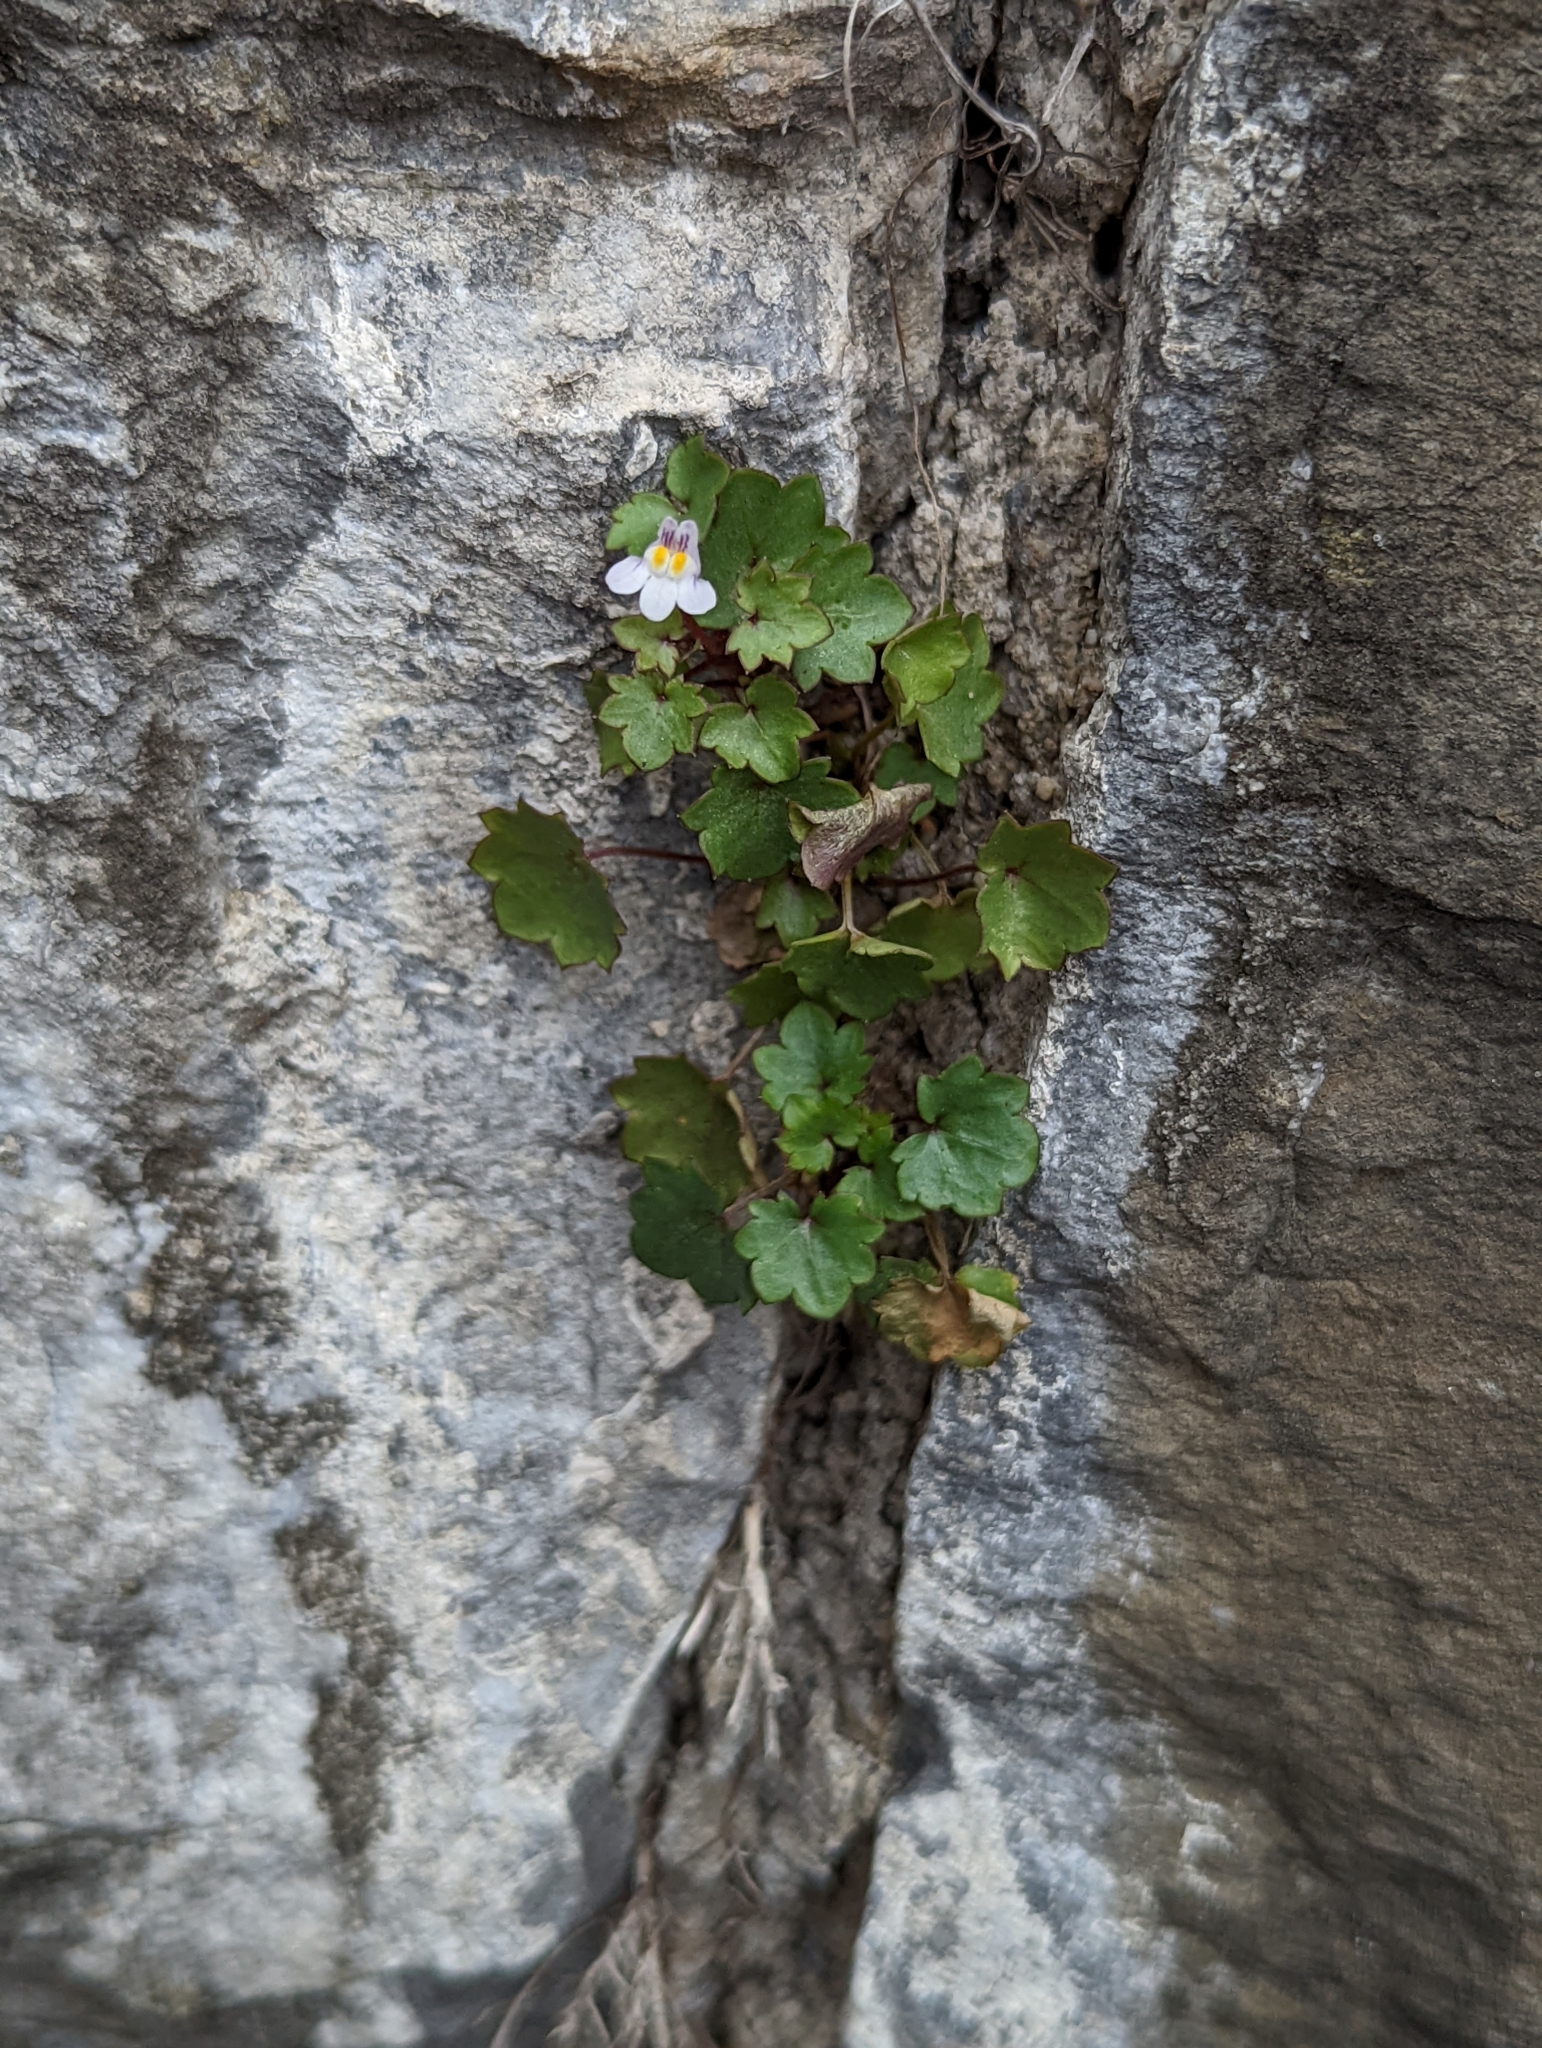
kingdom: Plantae
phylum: Tracheophyta
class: Magnoliopsida
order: Lamiales
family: Plantaginaceae
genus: Cymbalaria
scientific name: Cymbalaria muralis
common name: Ivy-leaved toadflax
